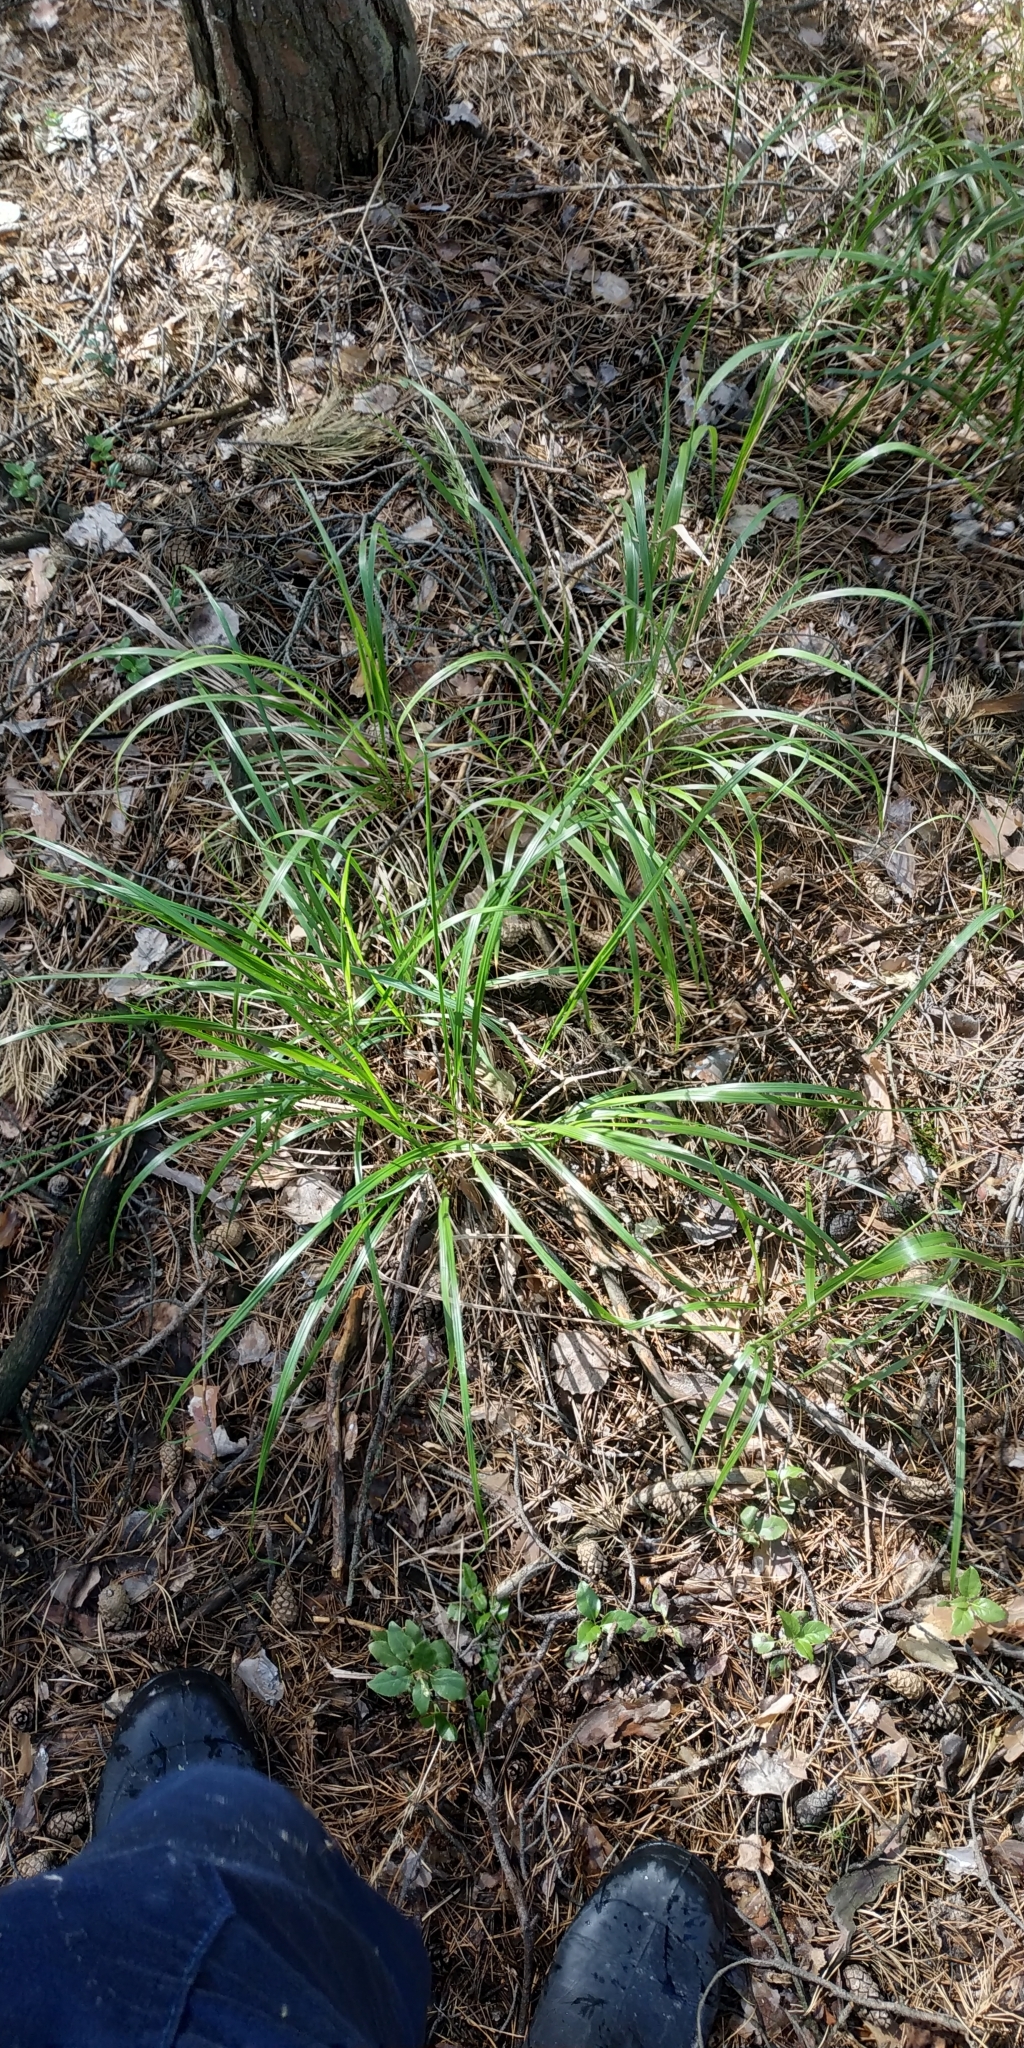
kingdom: Plantae
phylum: Tracheophyta
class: Liliopsida
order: Poales
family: Poaceae
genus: Calamagrostis
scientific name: Calamagrostis arundinacea
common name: Metskastik
